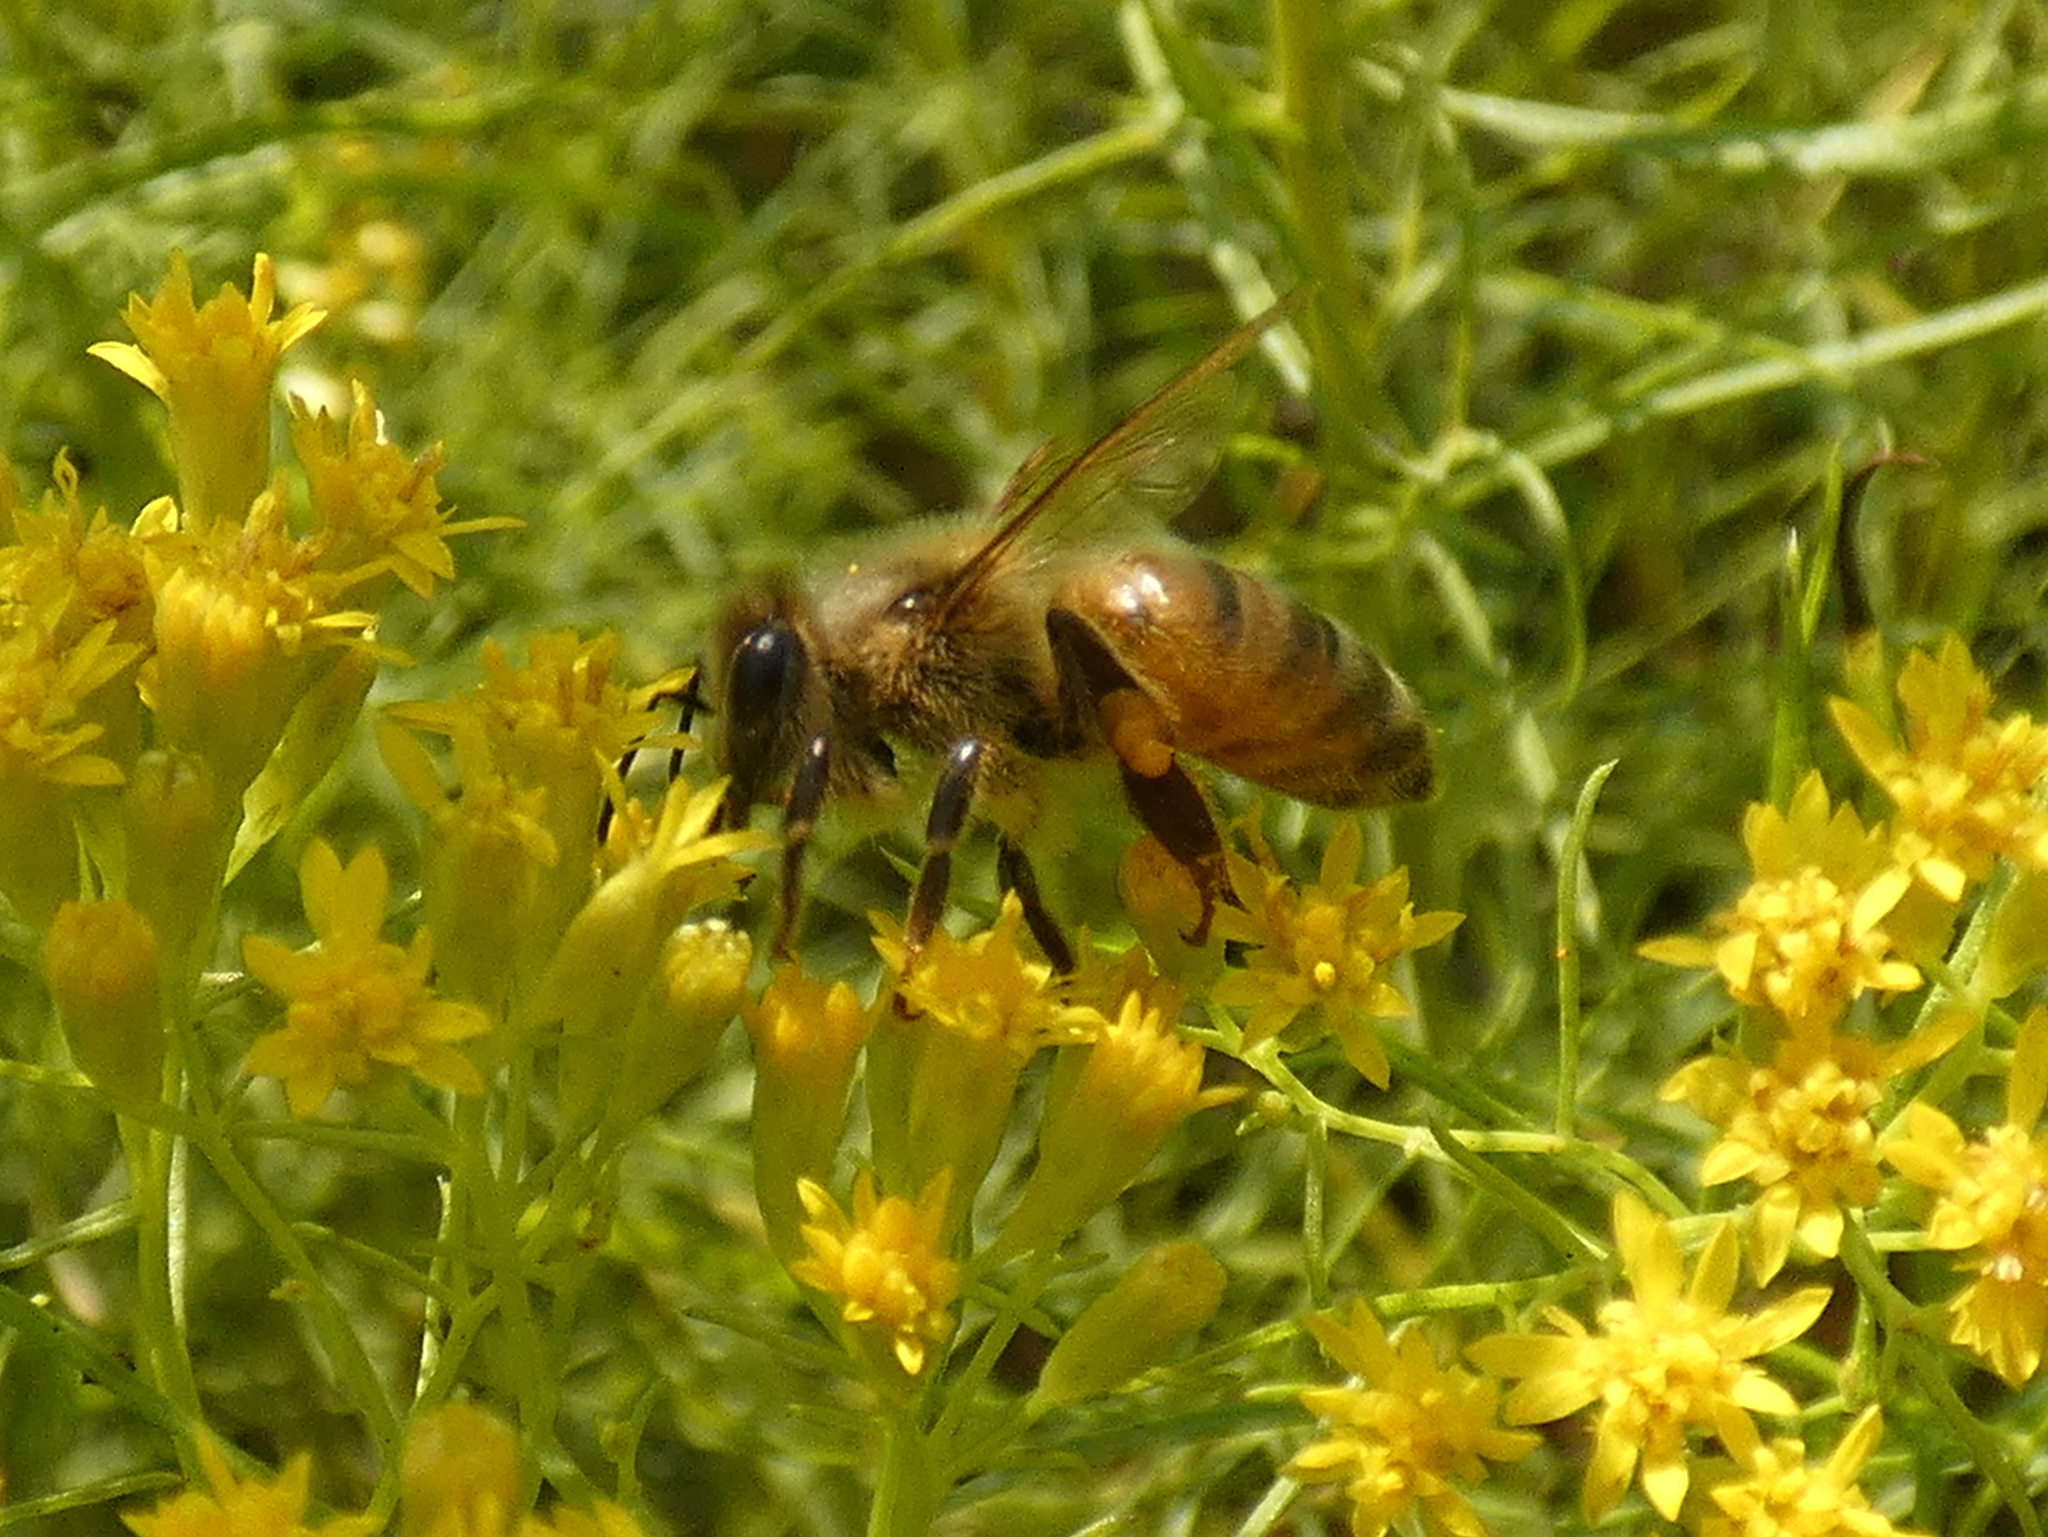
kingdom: Animalia
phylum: Arthropoda
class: Insecta
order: Hymenoptera
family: Apidae
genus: Apis
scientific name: Apis mellifera
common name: Honey bee
